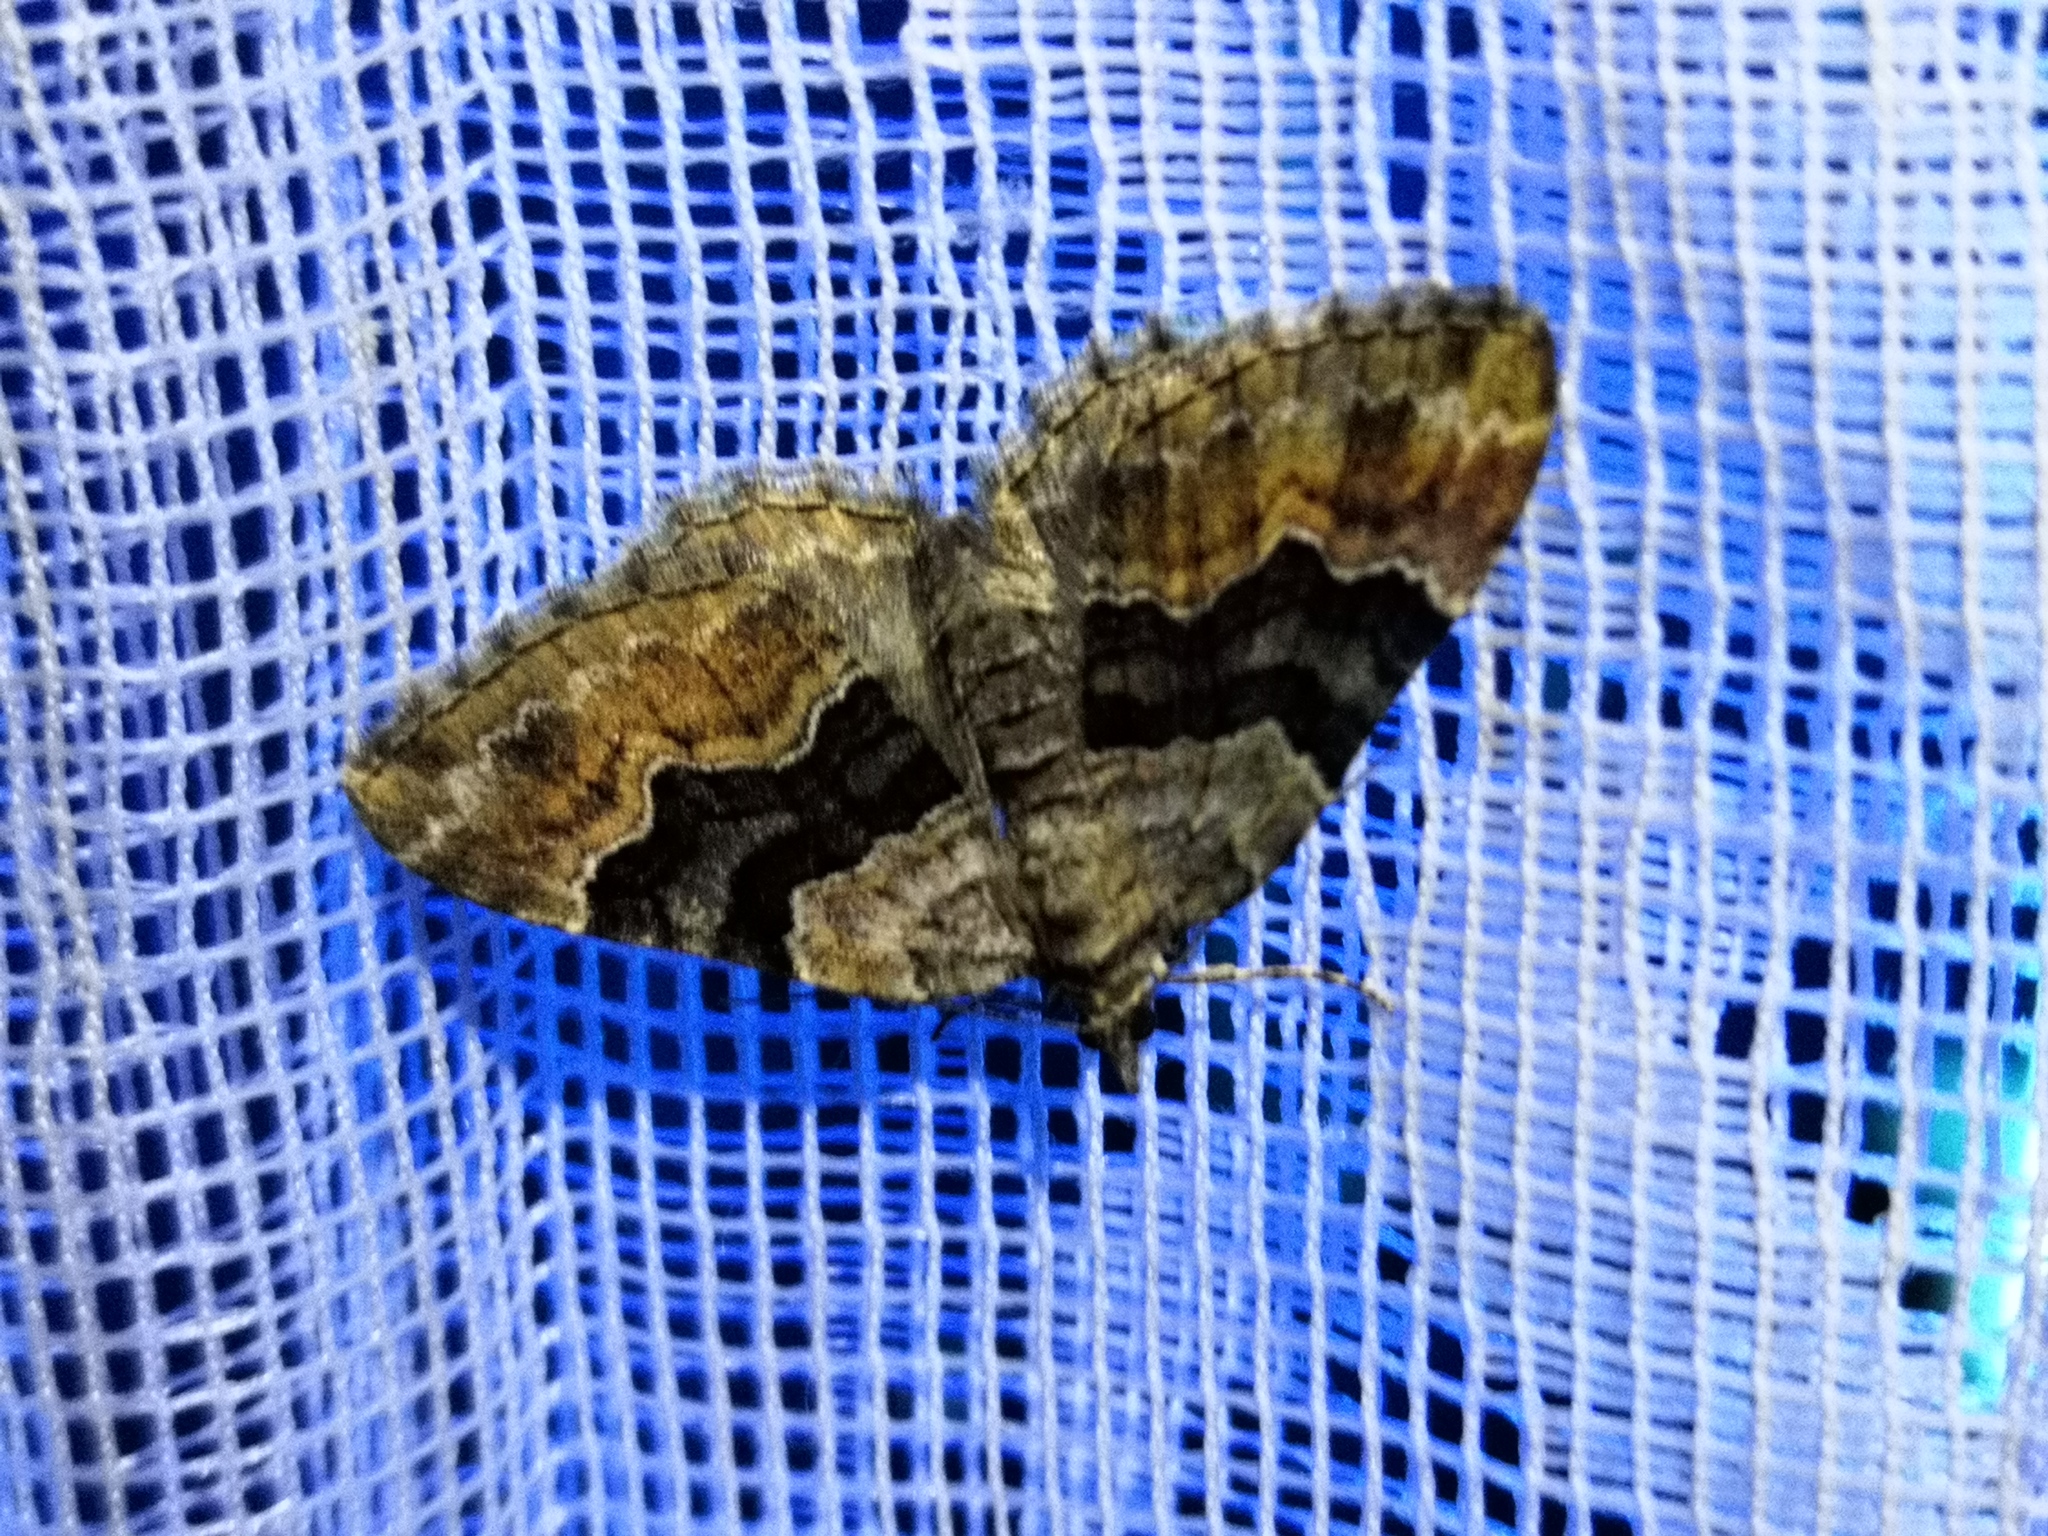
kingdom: Animalia
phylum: Arthropoda
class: Insecta
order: Lepidoptera
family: Geometridae
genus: Xanthorhoe
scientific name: Xanthorhoe quadrifasiata
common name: Large twin-spot carpet
